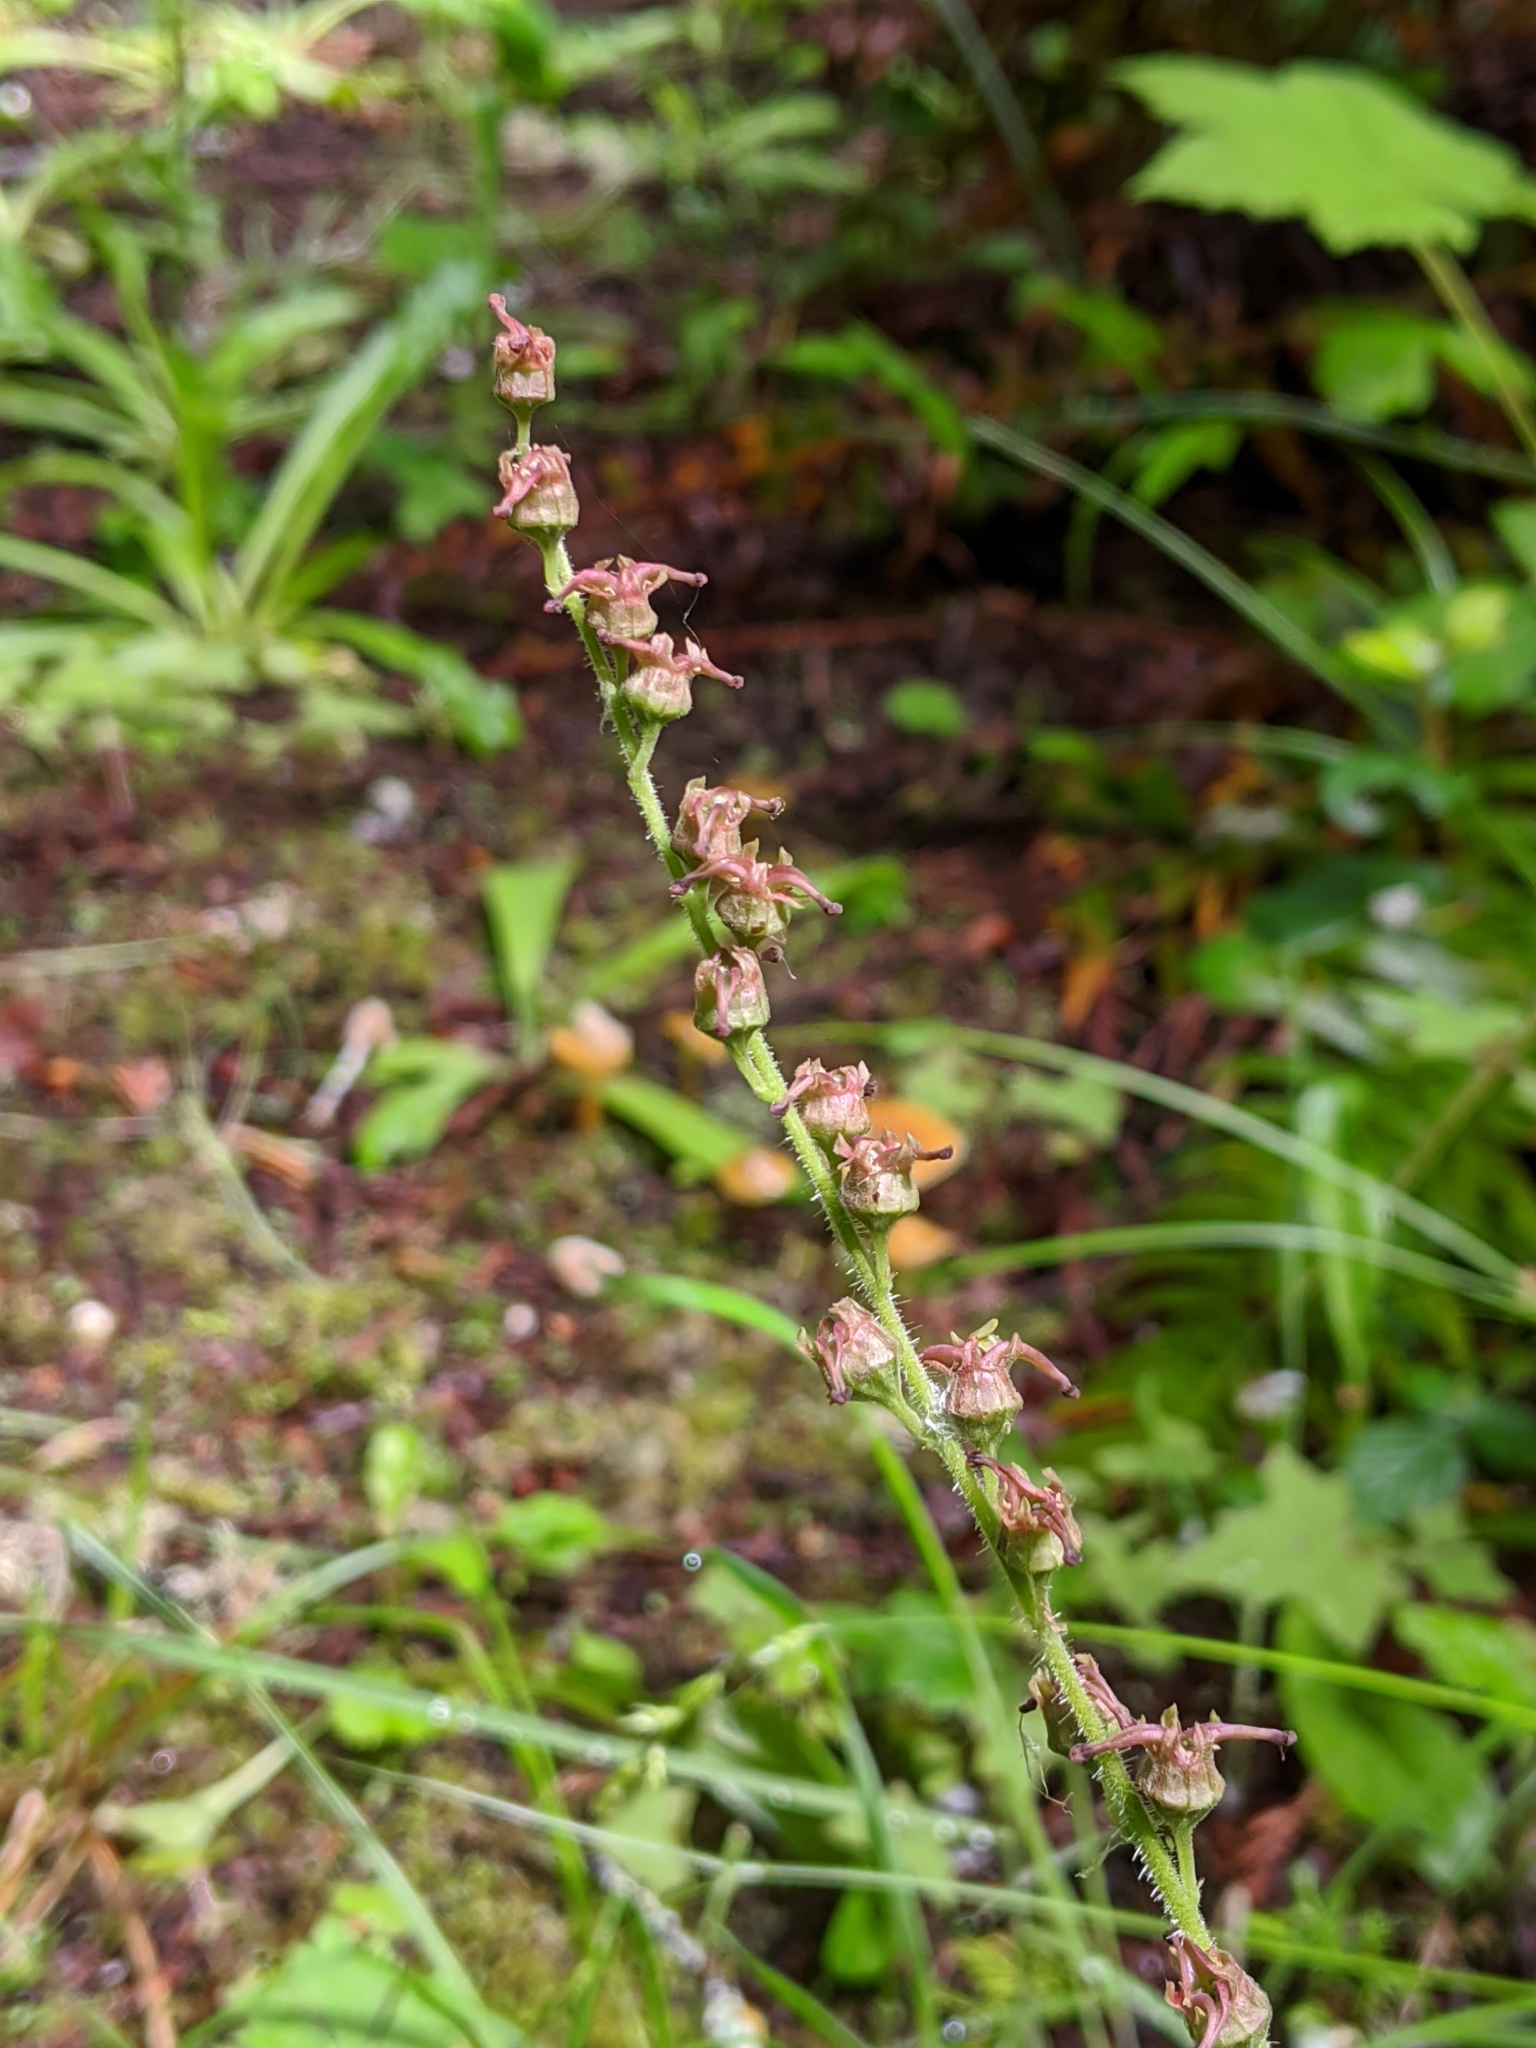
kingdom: Plantae
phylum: Tracheophyta
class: Magnoliopsida
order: Saxifragales
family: Saxifragaceae
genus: Tellima
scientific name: Tellima grandiflora
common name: Fringecups
